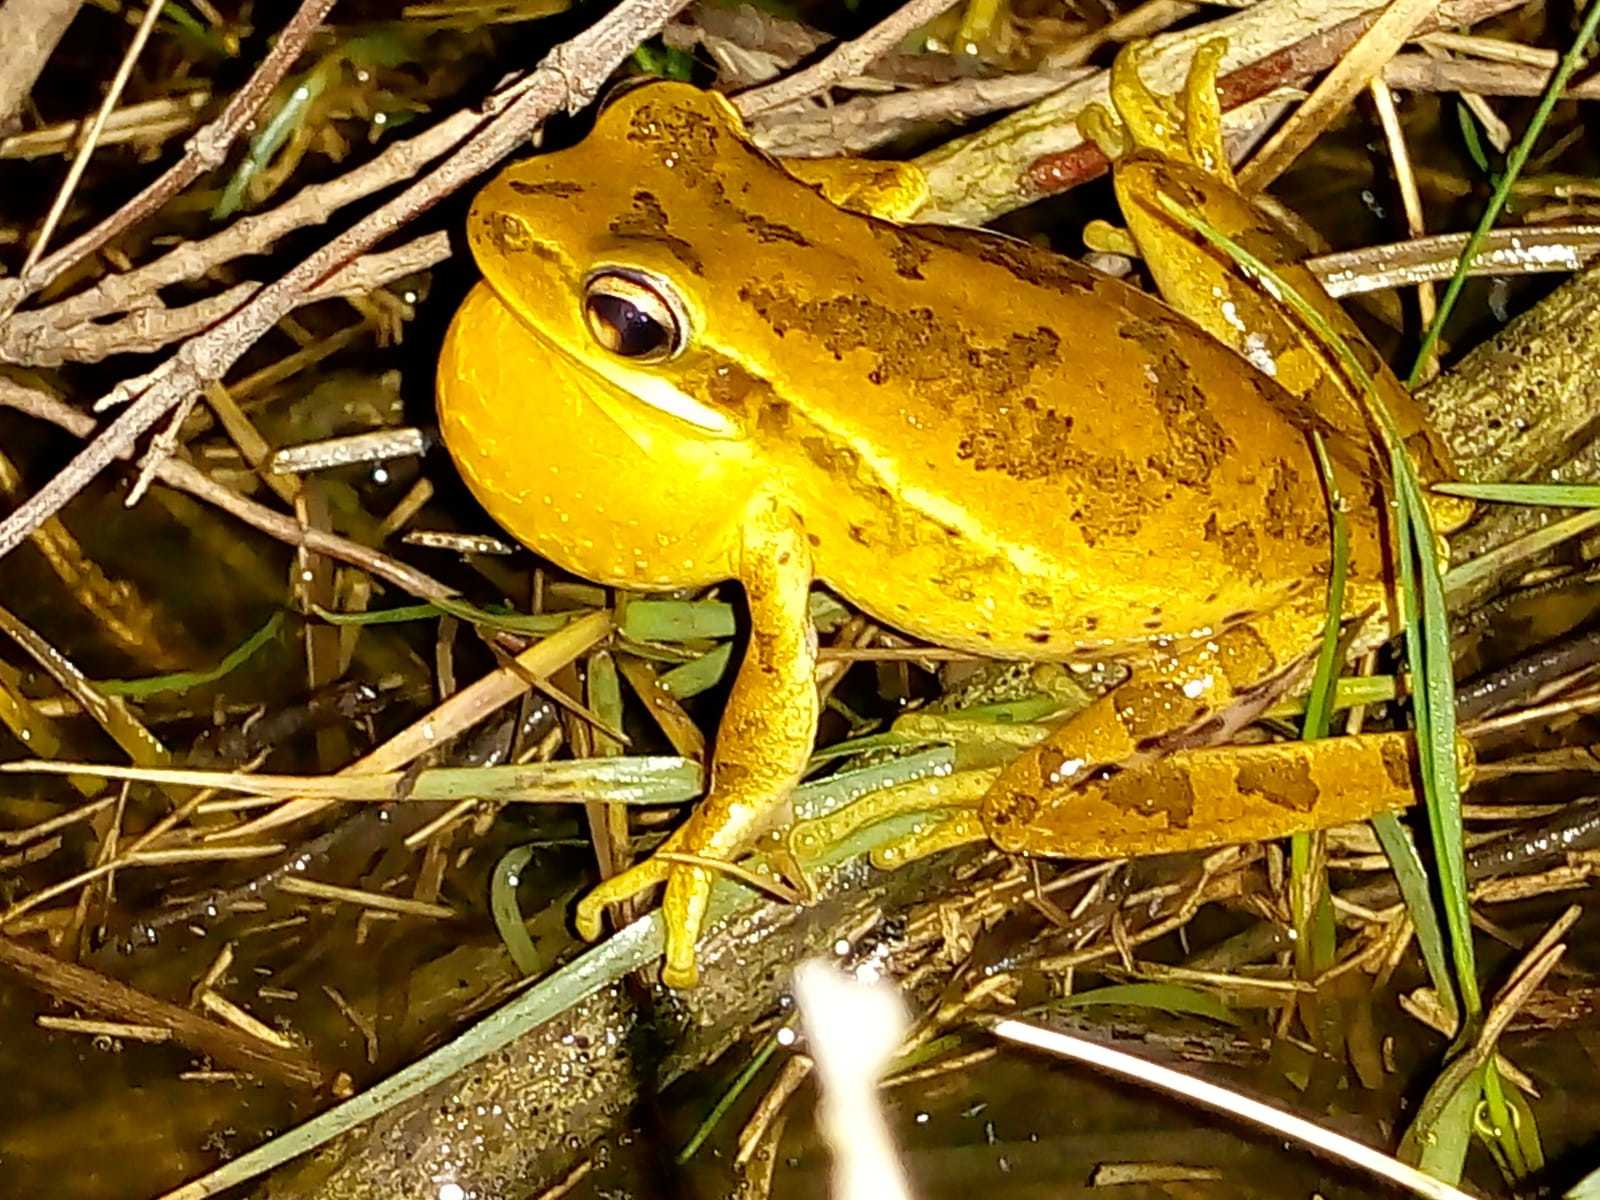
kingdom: Animalia
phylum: Chordata
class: Amphibia
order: Anura
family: Hylidae
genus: Boana
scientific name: Boana pulchella
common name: Montevideo treefrog
